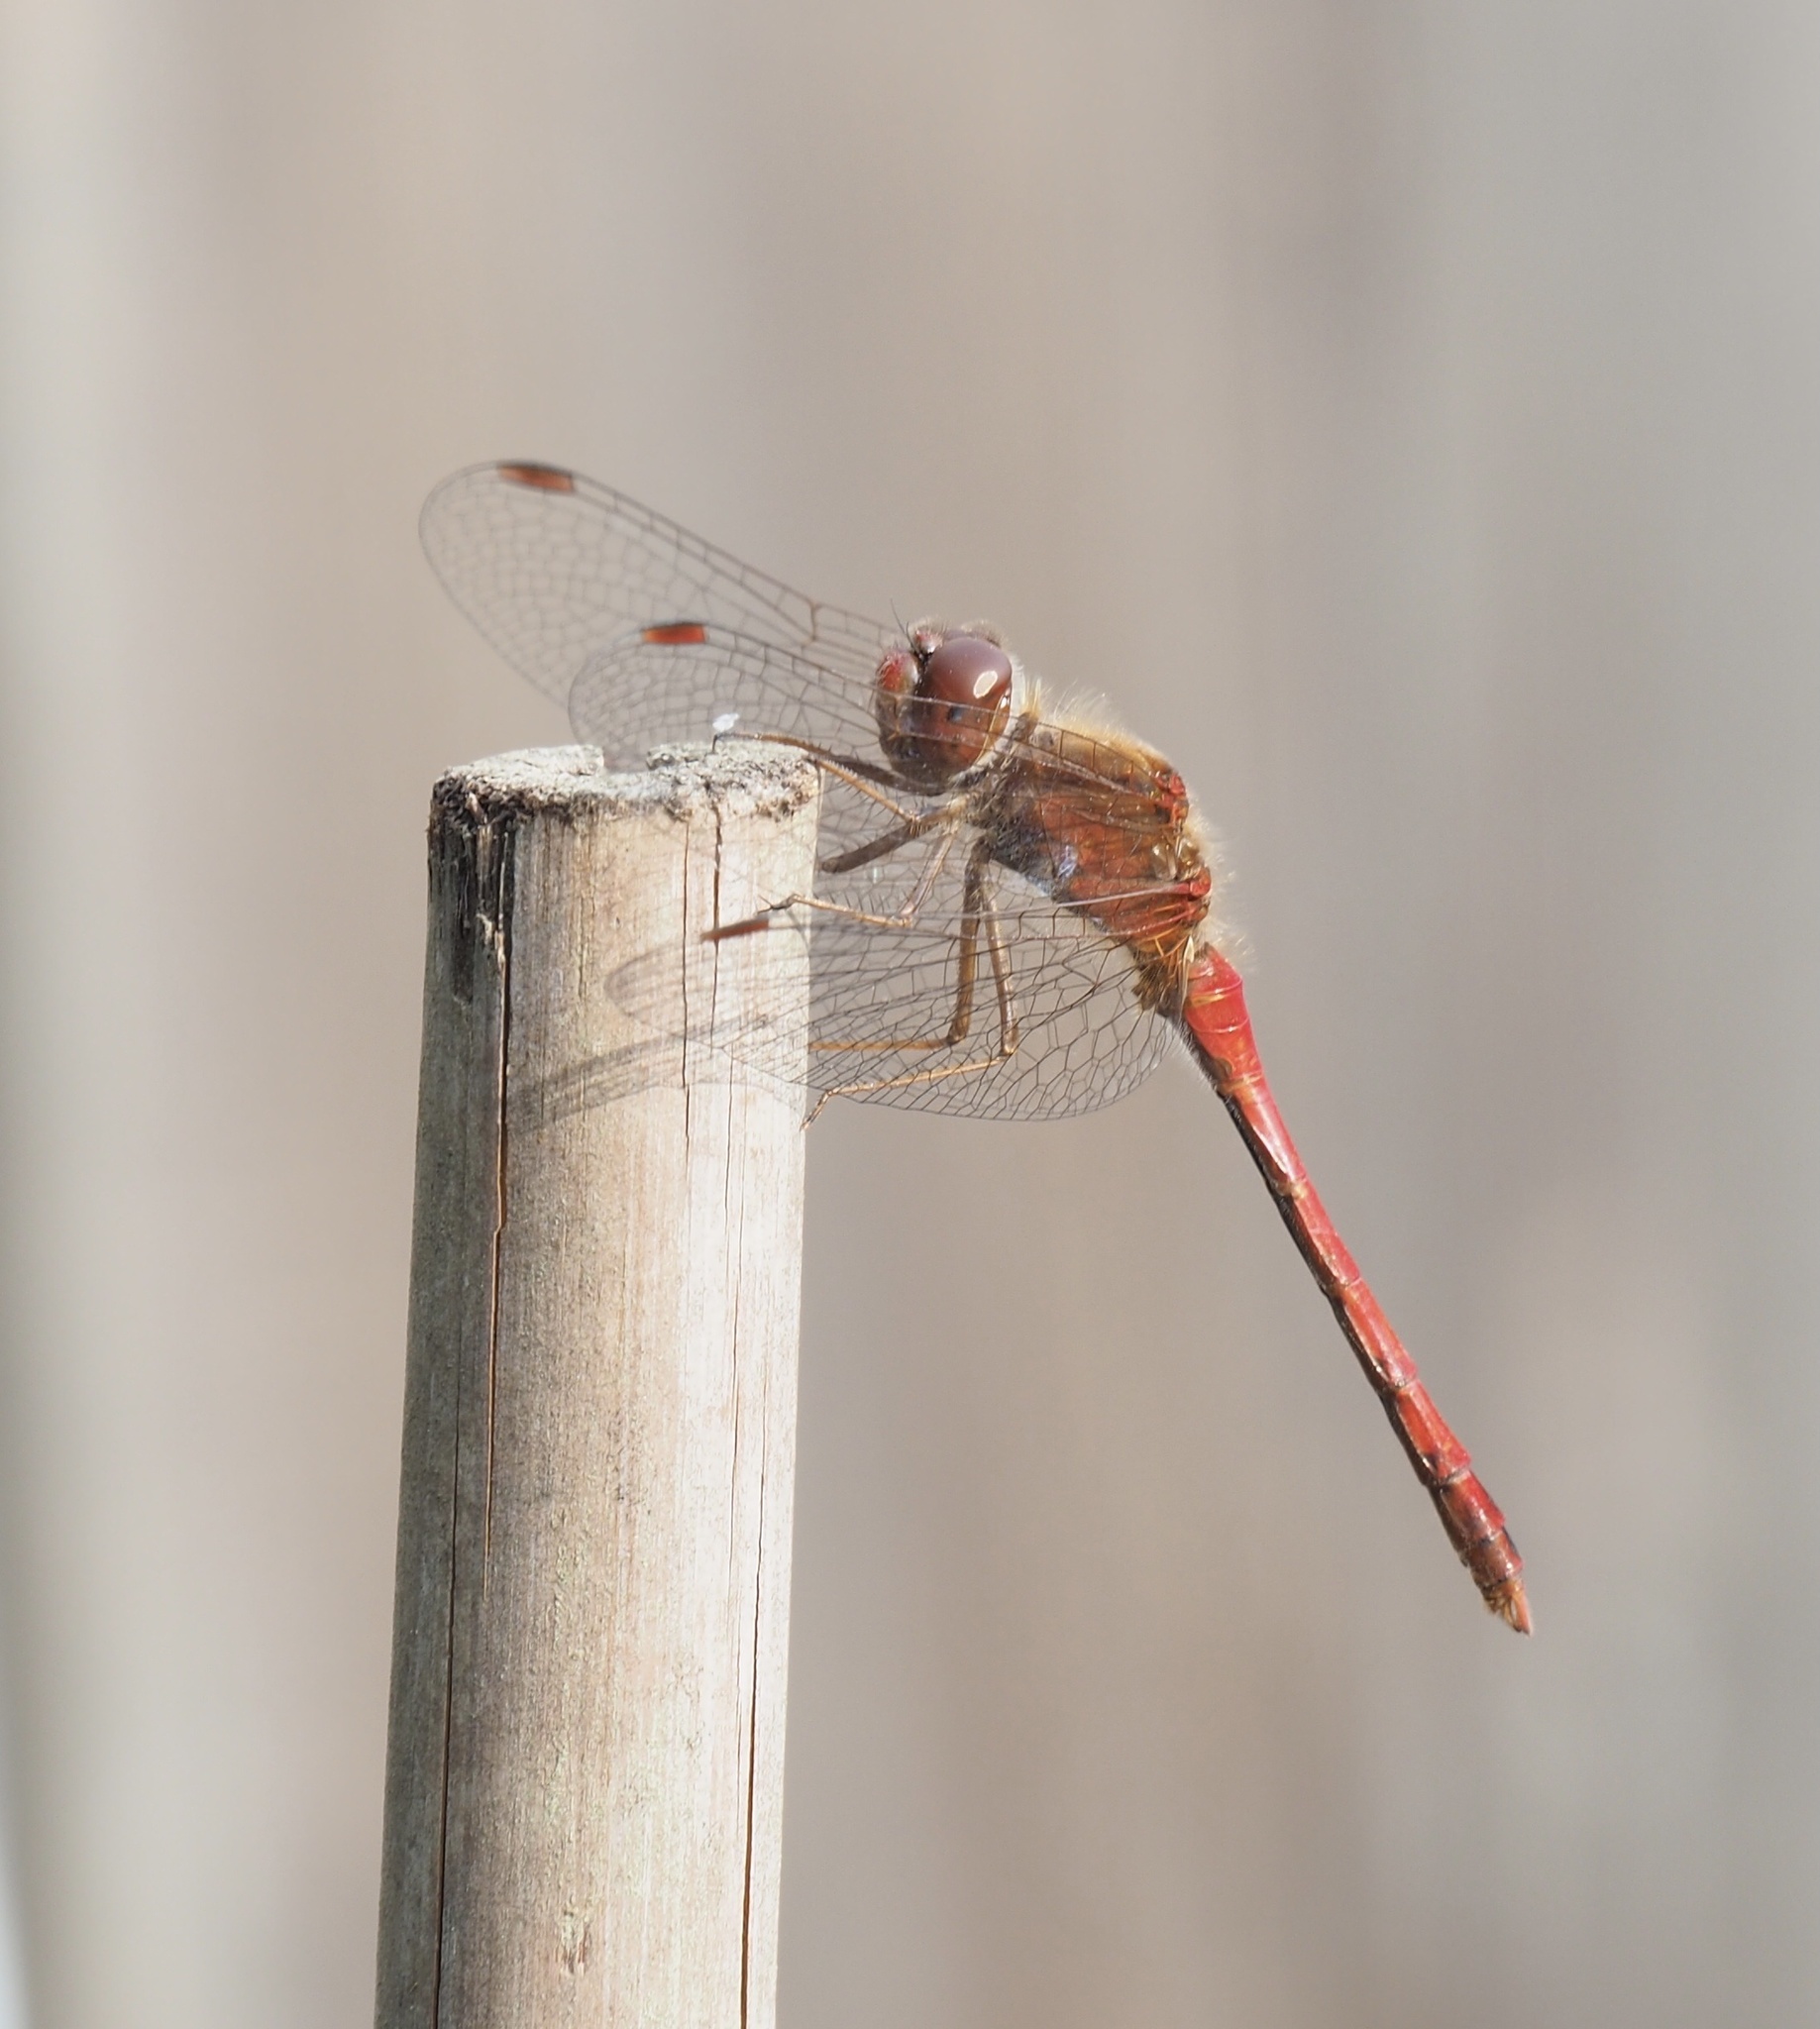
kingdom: Animalia
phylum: Arthropoda
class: Insecta
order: Odonata
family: Libellulidae
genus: Sympetrum
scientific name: Sympetrum vicinum
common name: Autumn meadowhawk
